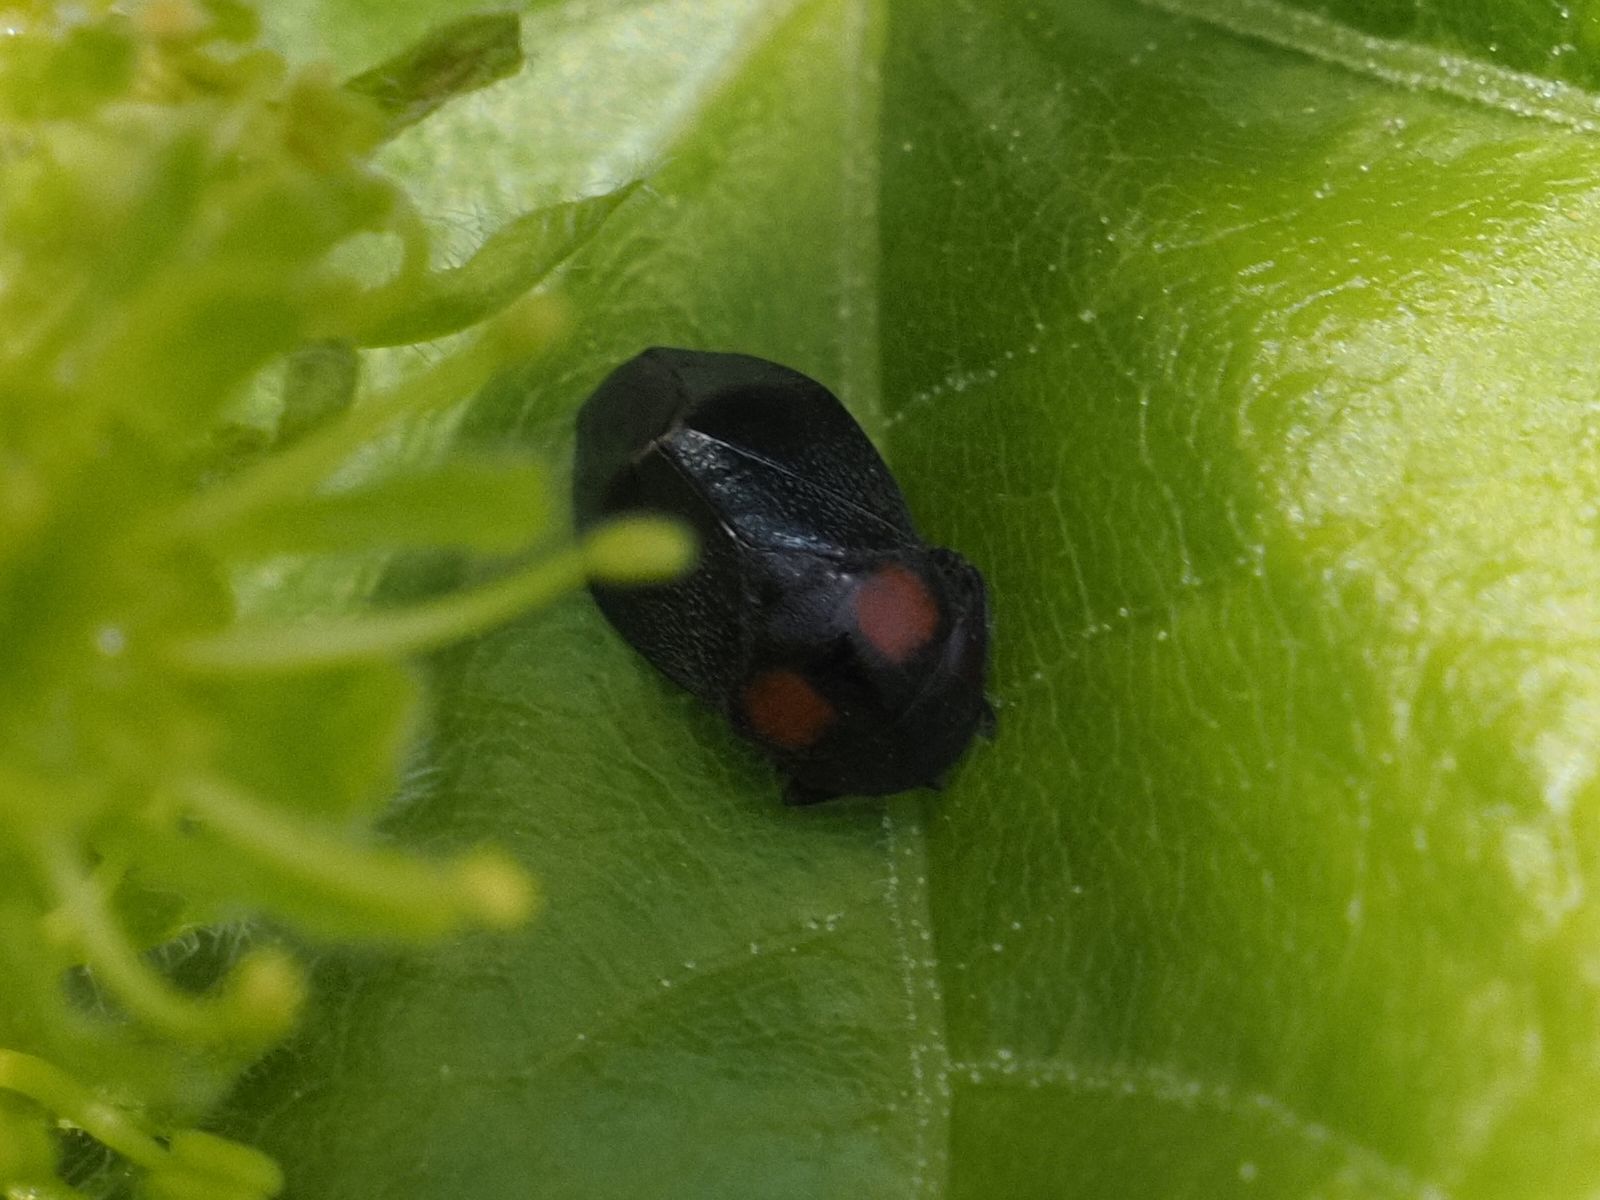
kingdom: Animalia
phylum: Arthropoda
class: Insecta
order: Hemiptera
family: Cicadellidae
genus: Penthimia
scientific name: Penthimia nigra
